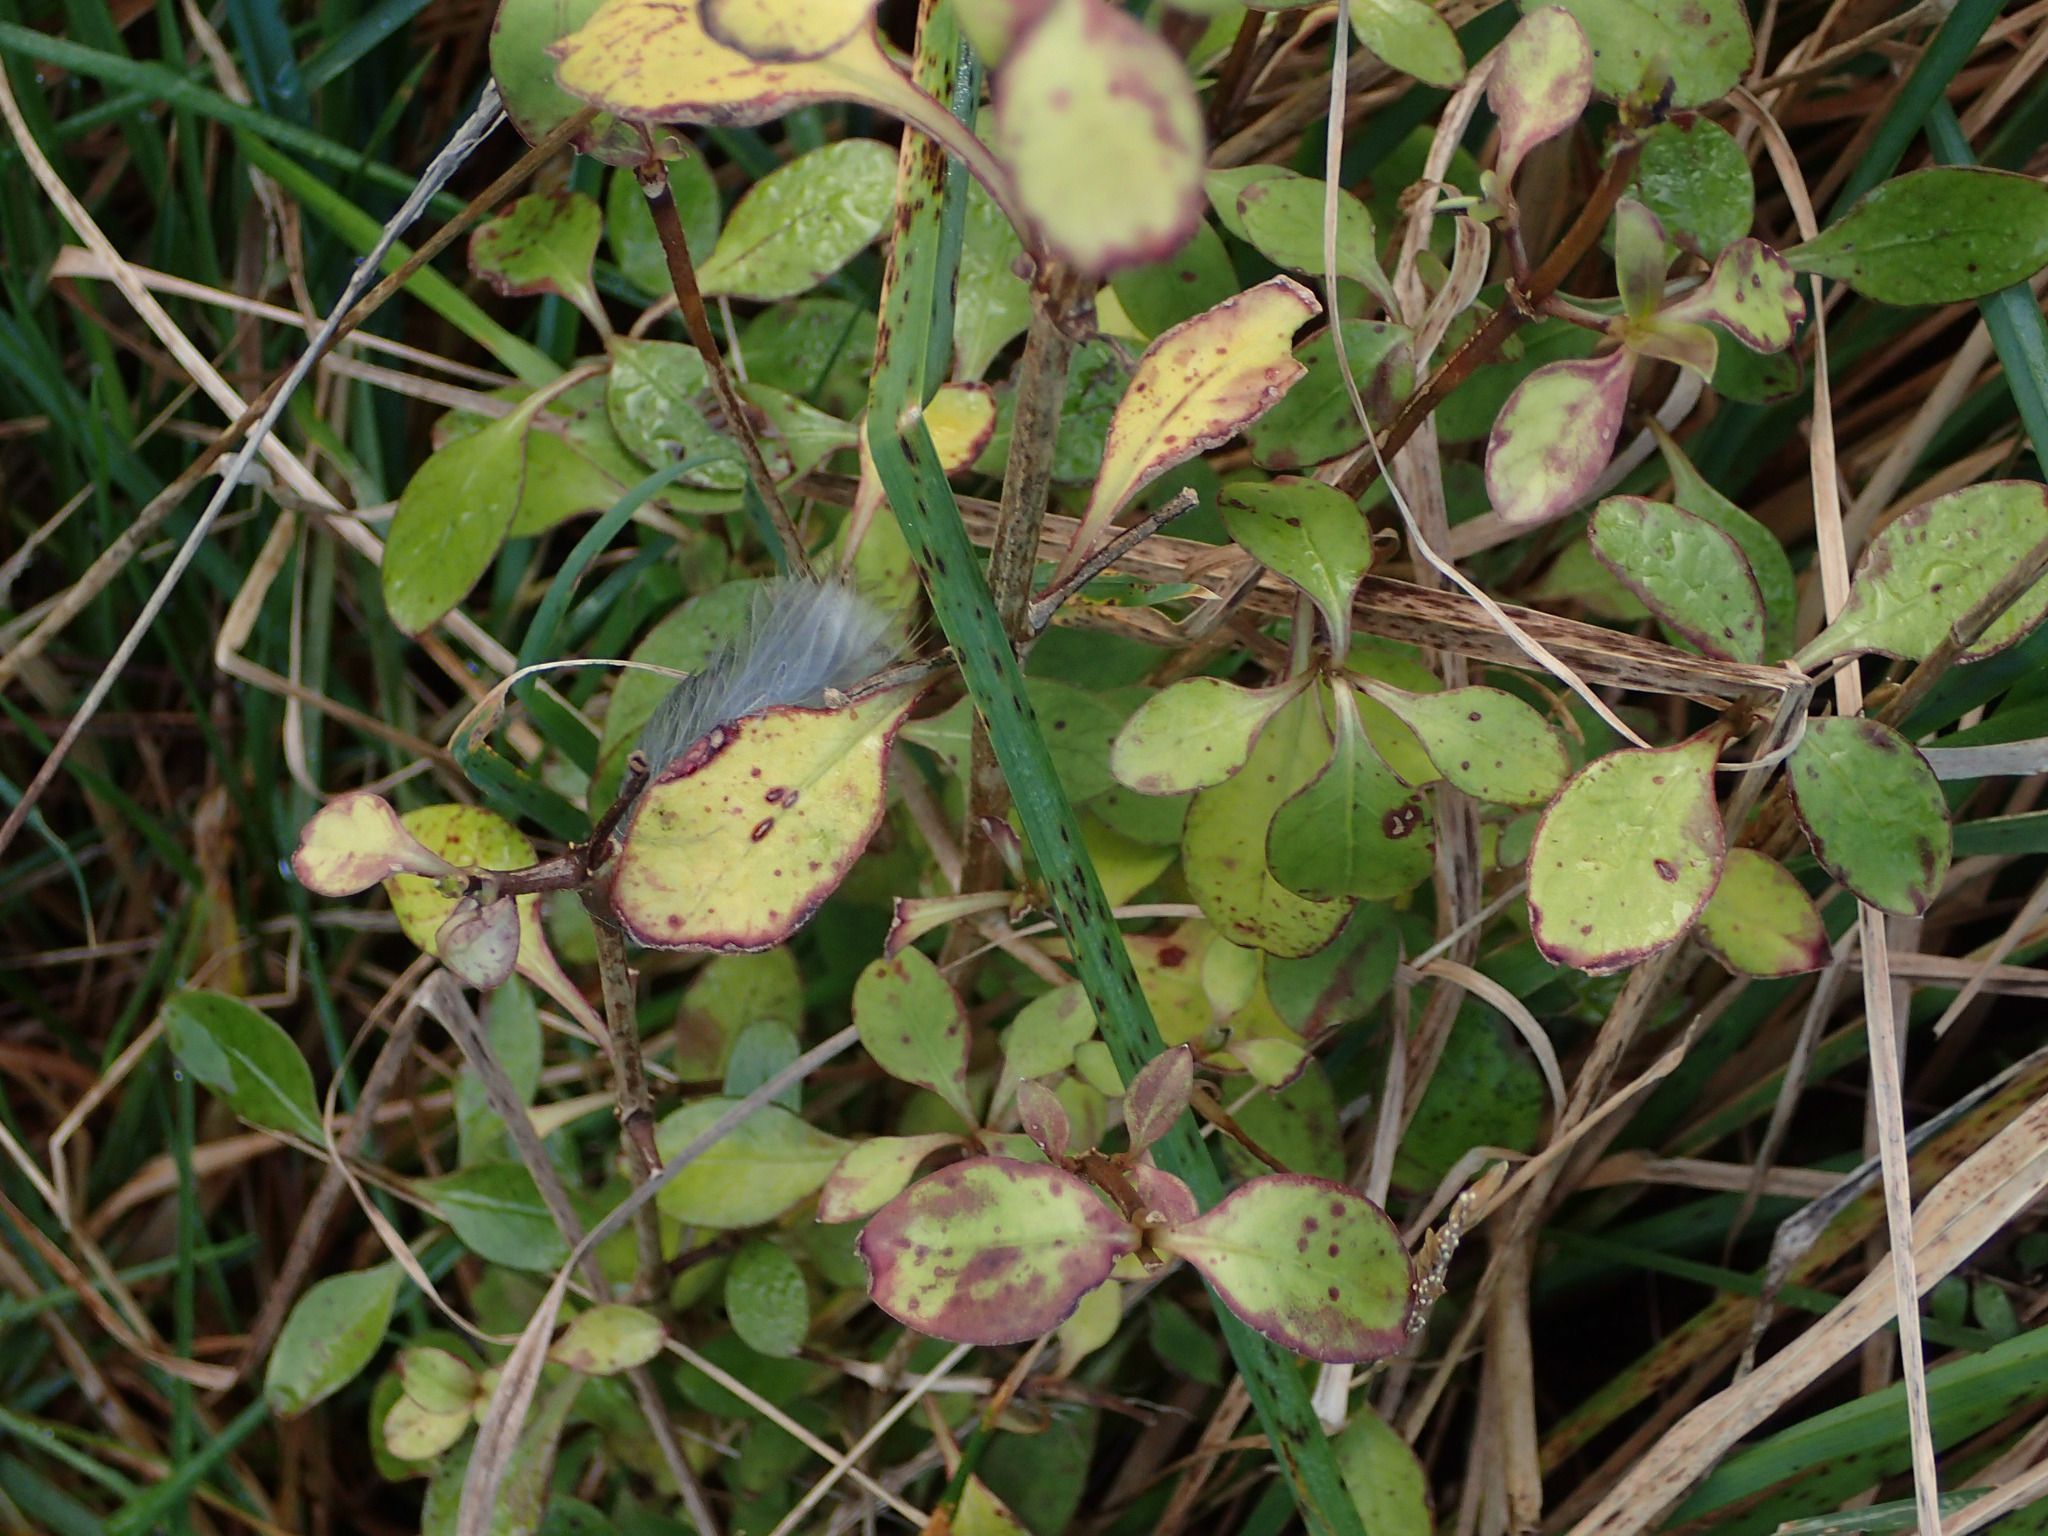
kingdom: Plantae
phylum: Tracheophyta
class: Magnoliopsida
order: Gentianales
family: Rubiaceae
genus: Coprosma
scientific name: Coprosma foetidissima
